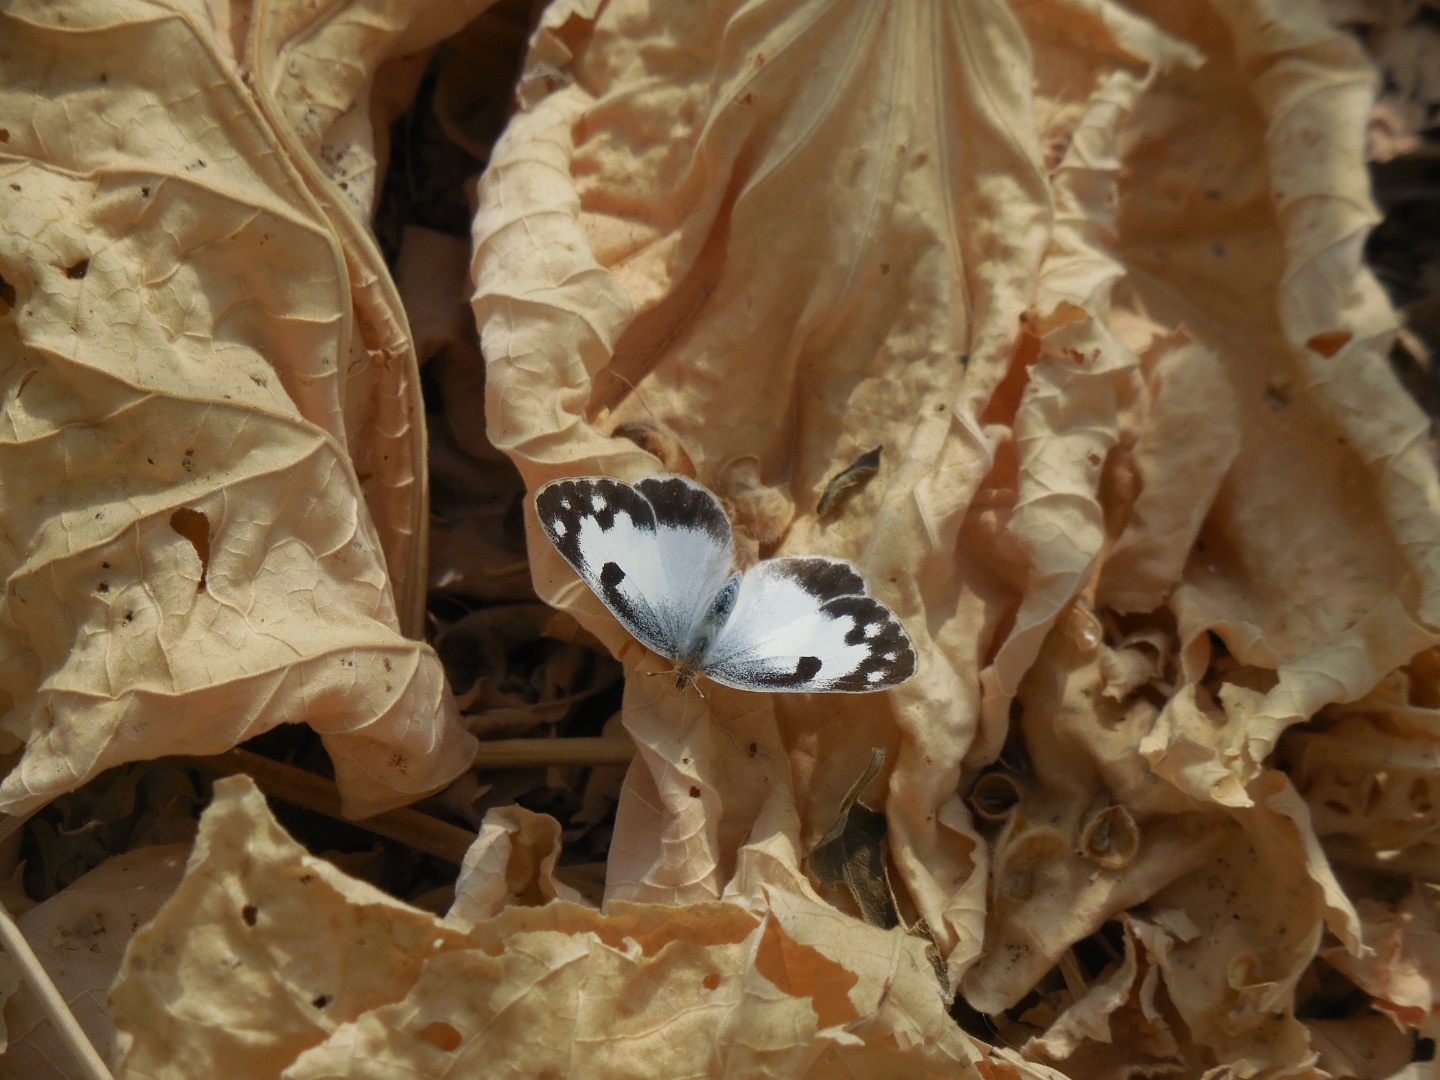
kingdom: Animalia
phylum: Arthropoda
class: Insecta
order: Lepidoptera
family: Pieridae
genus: Colotis
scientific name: Colotis phisadia
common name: Blue spotted arab
